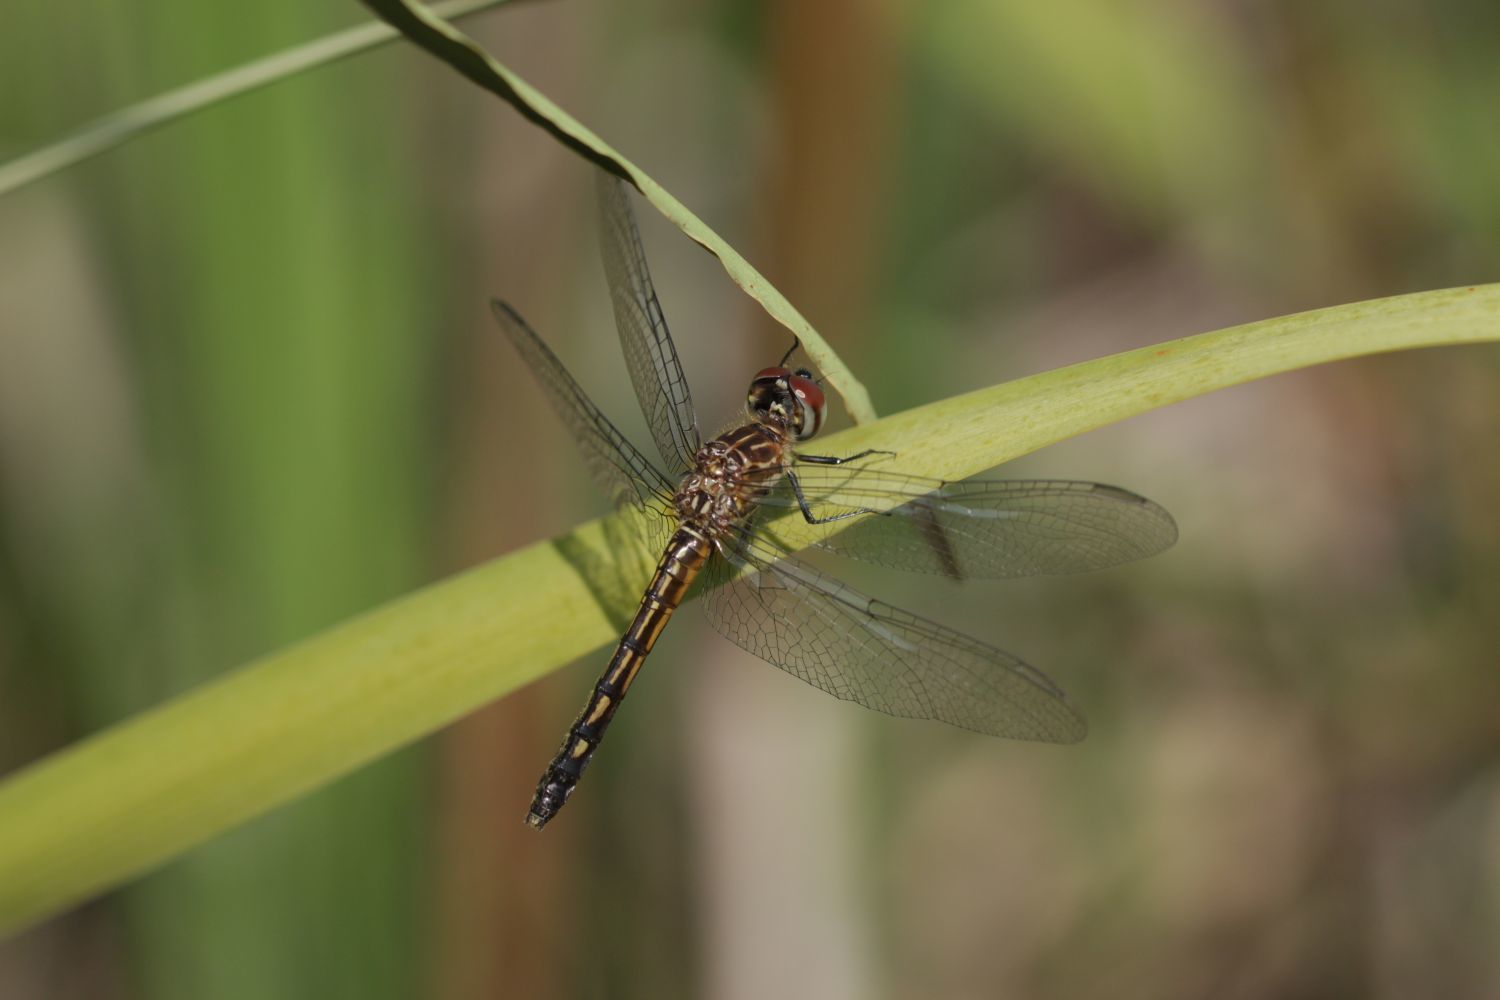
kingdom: Animalia
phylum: Arthropoda
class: Insecta
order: Odonata
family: Libellulidae
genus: Pachydiplax
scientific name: Pachydiplax longipennis
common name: Blue dasher
